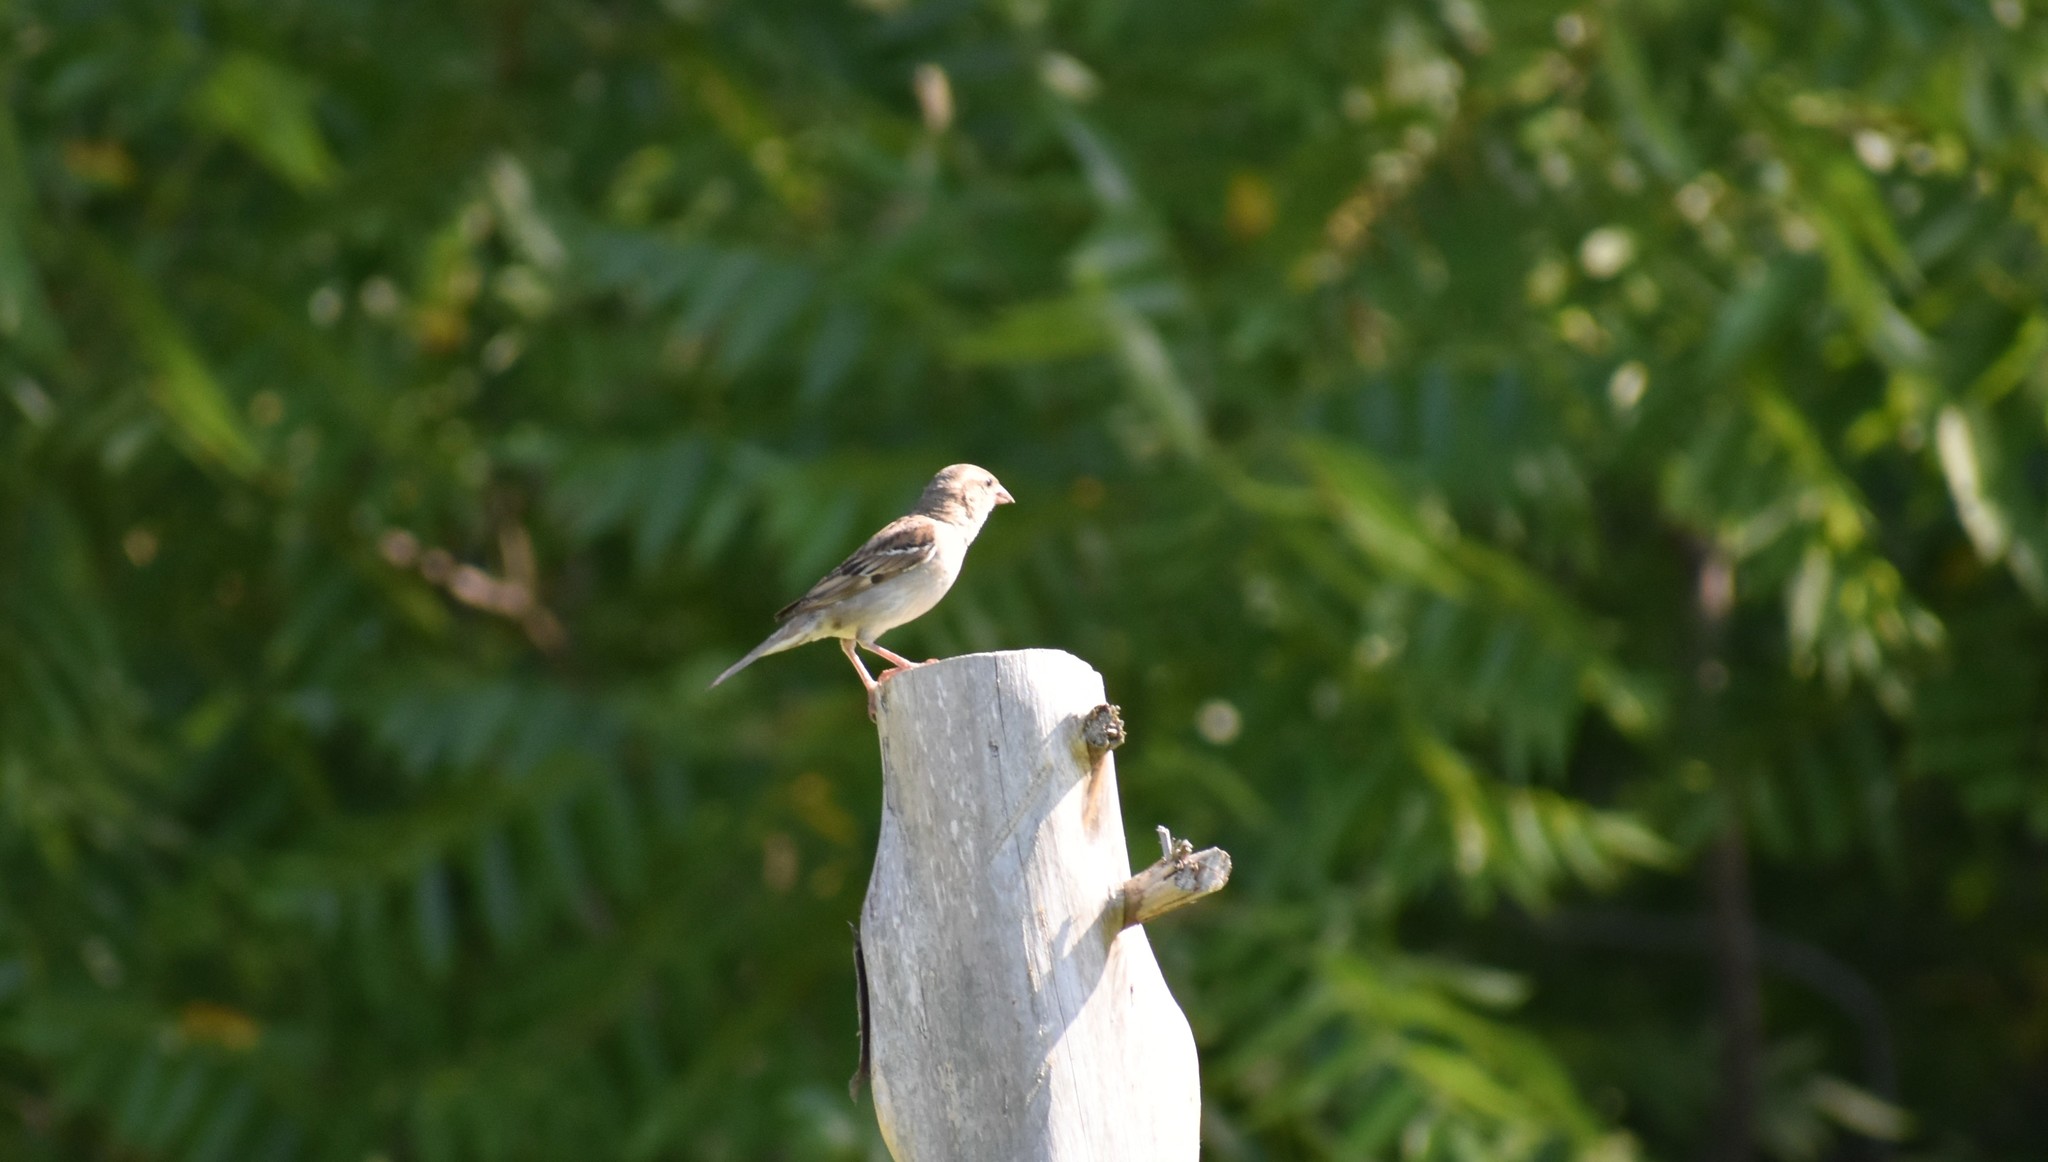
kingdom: Animalia
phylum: Chordata
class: Aves
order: Passeriformes
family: Passeridae
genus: Passer
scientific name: Passer domesticus
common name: House sparrow
